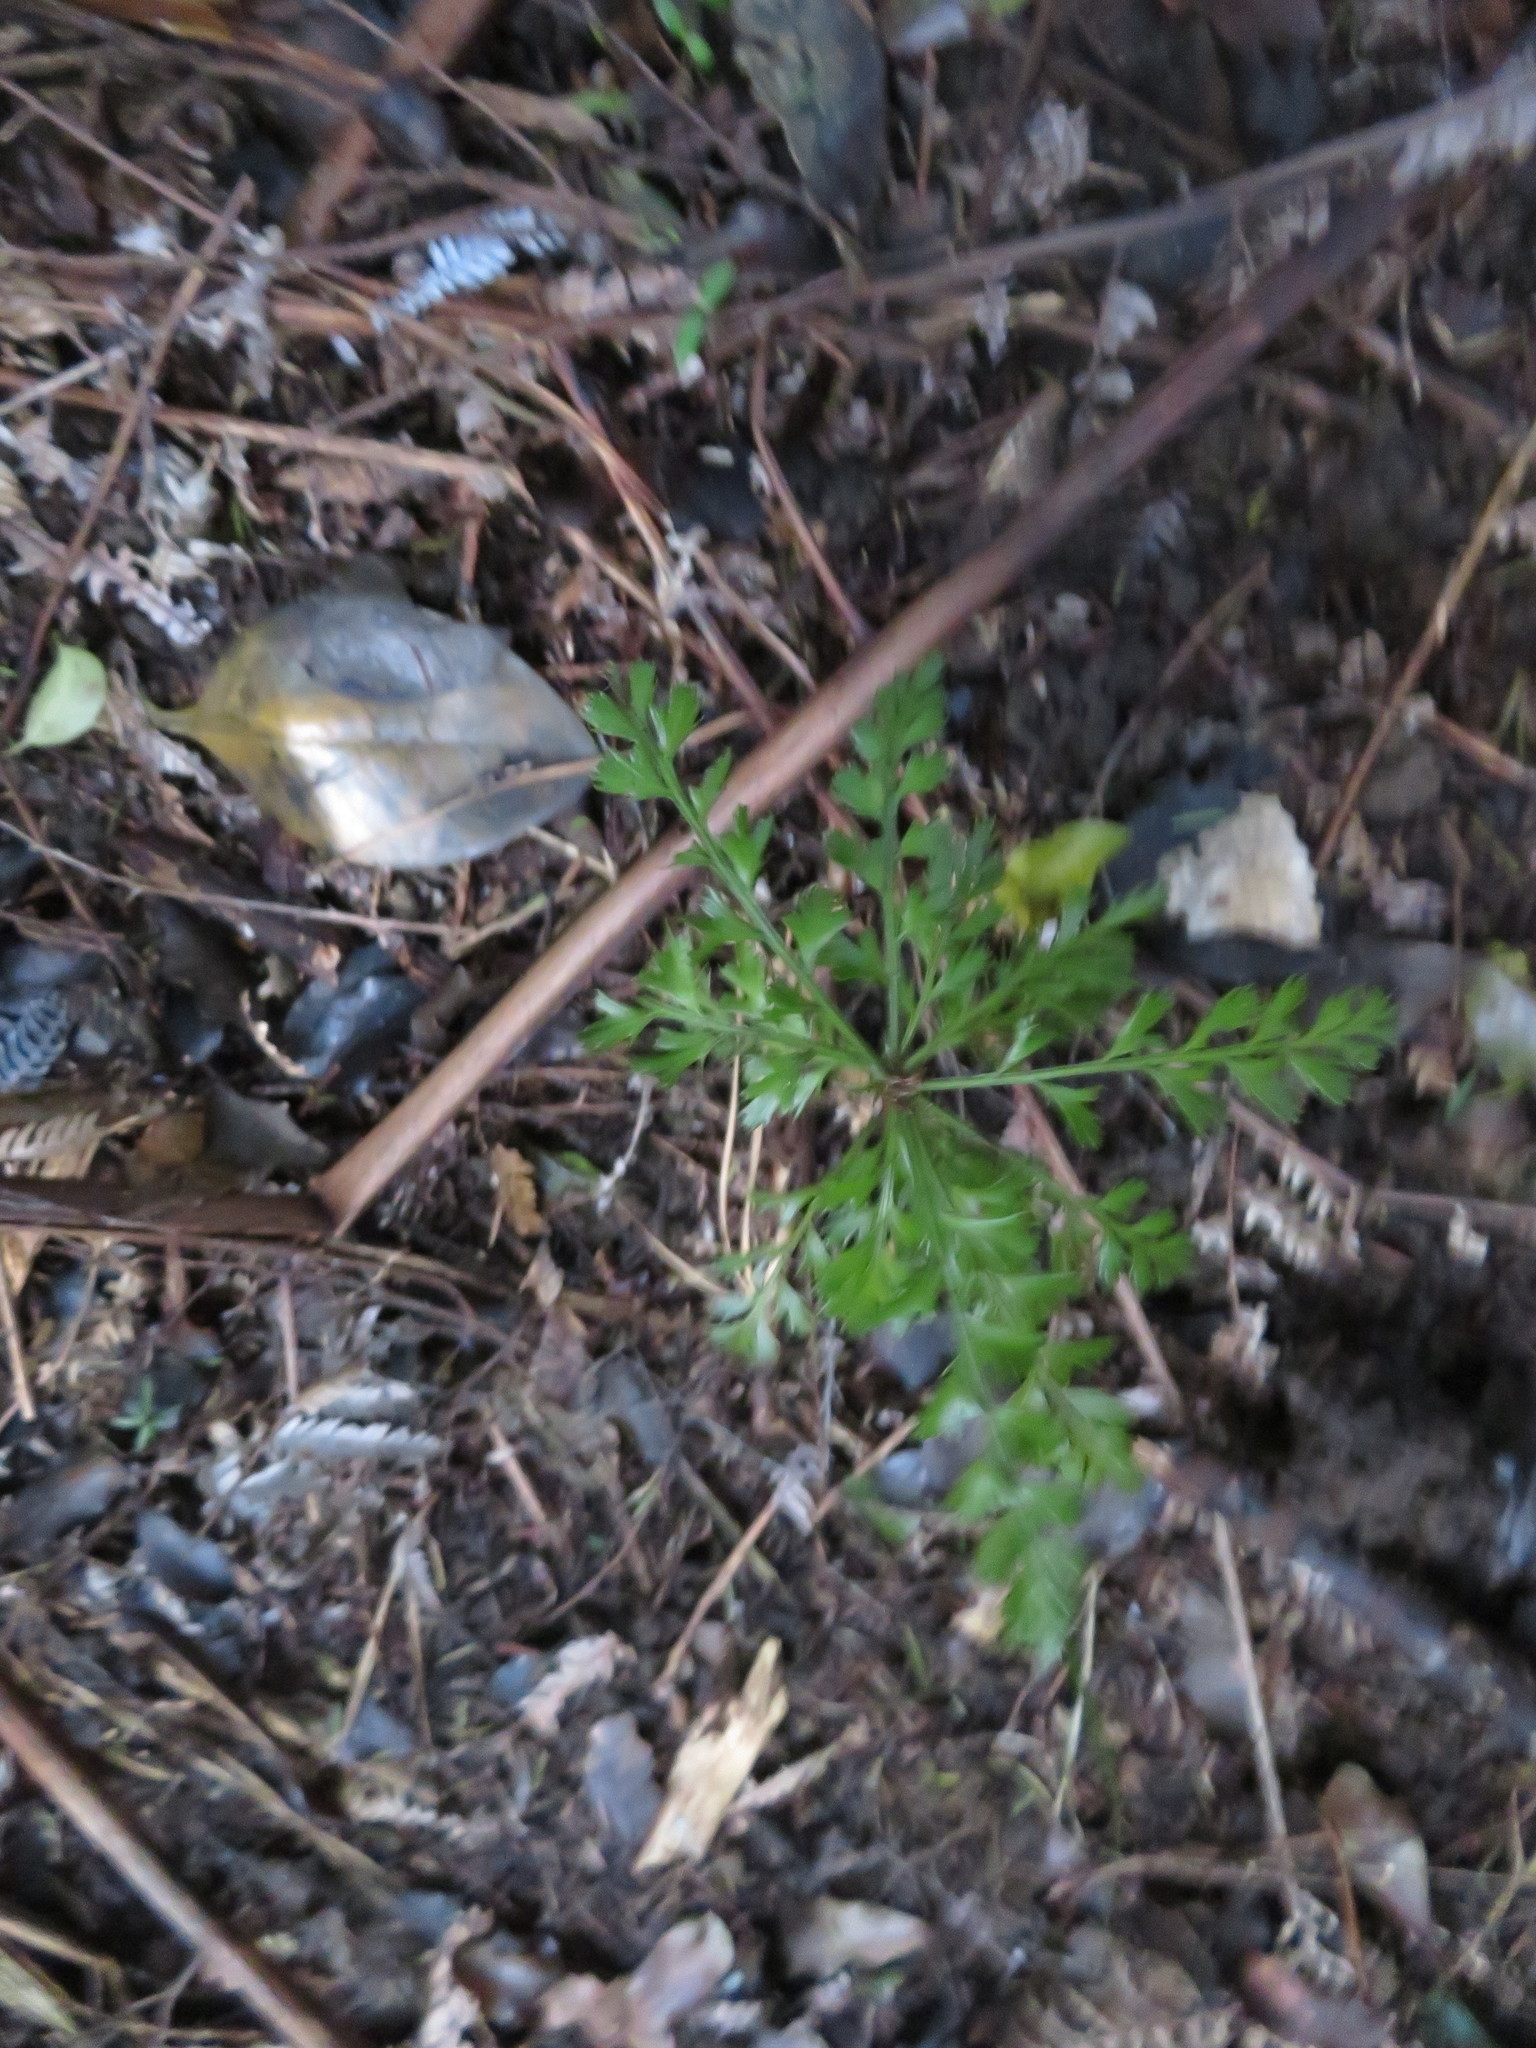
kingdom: Plantae
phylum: Tracheophyta
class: Pinopsida
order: Pinales
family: Phyllocladaceae
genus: Phyllocladus
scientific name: Phyllocladus trichomanoides
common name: Celery pine
